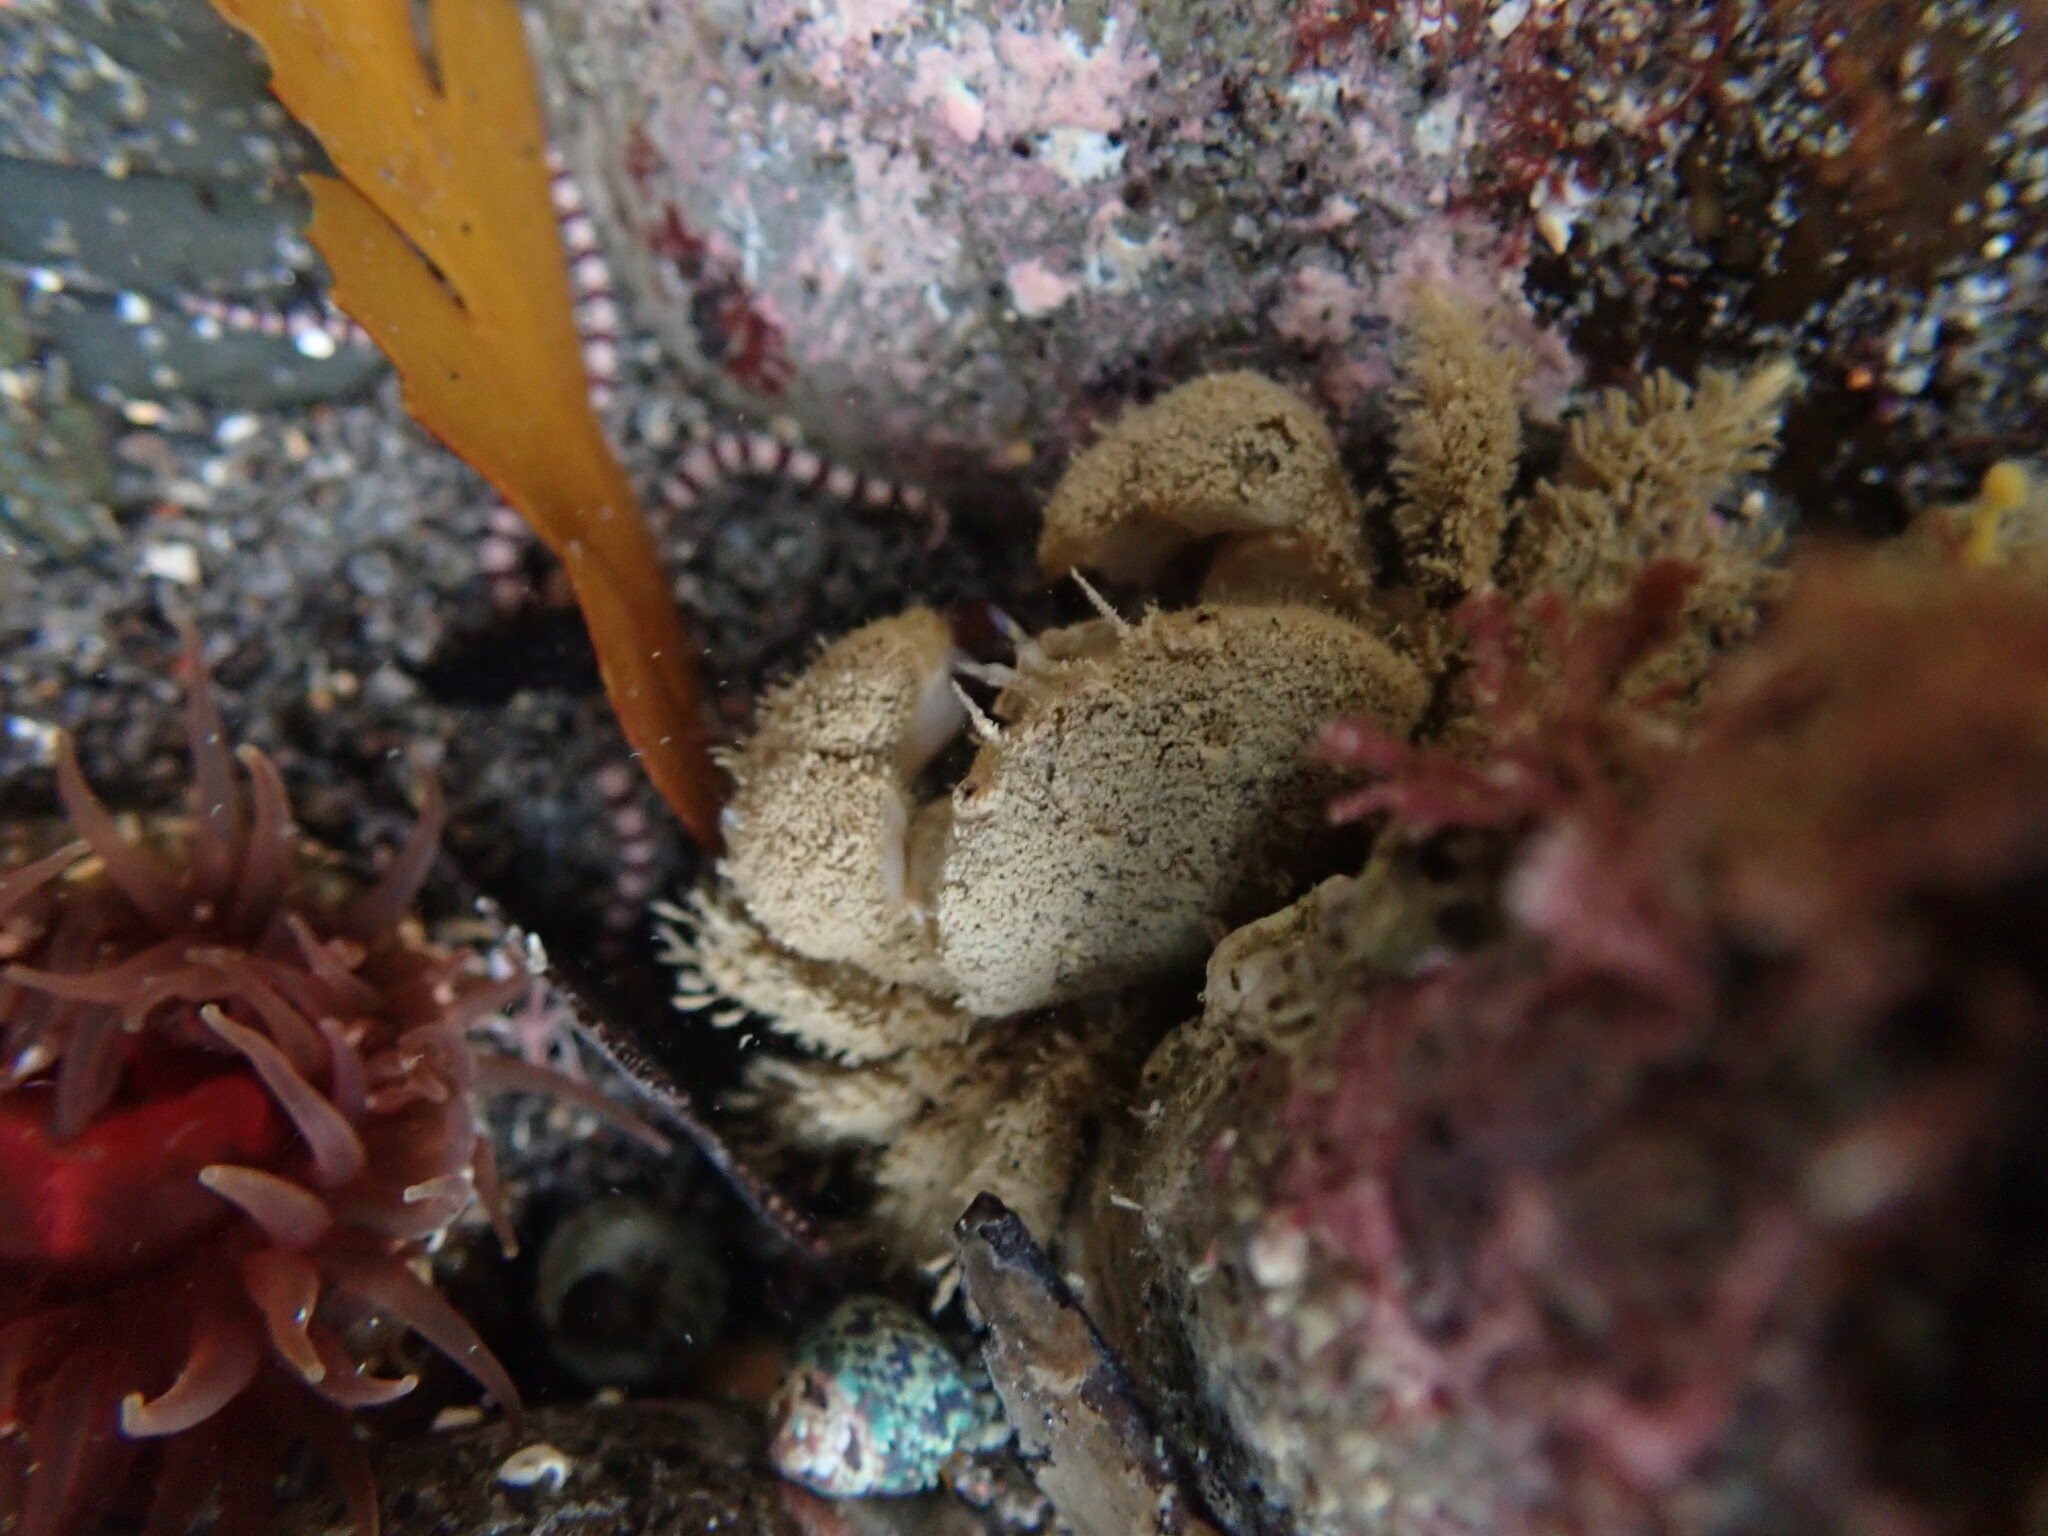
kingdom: Animalia
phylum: Arthropoda
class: Malacostraca
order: Decapoda
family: Pilumnidae
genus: Pilumnus
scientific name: Pilumnus lumpinus
